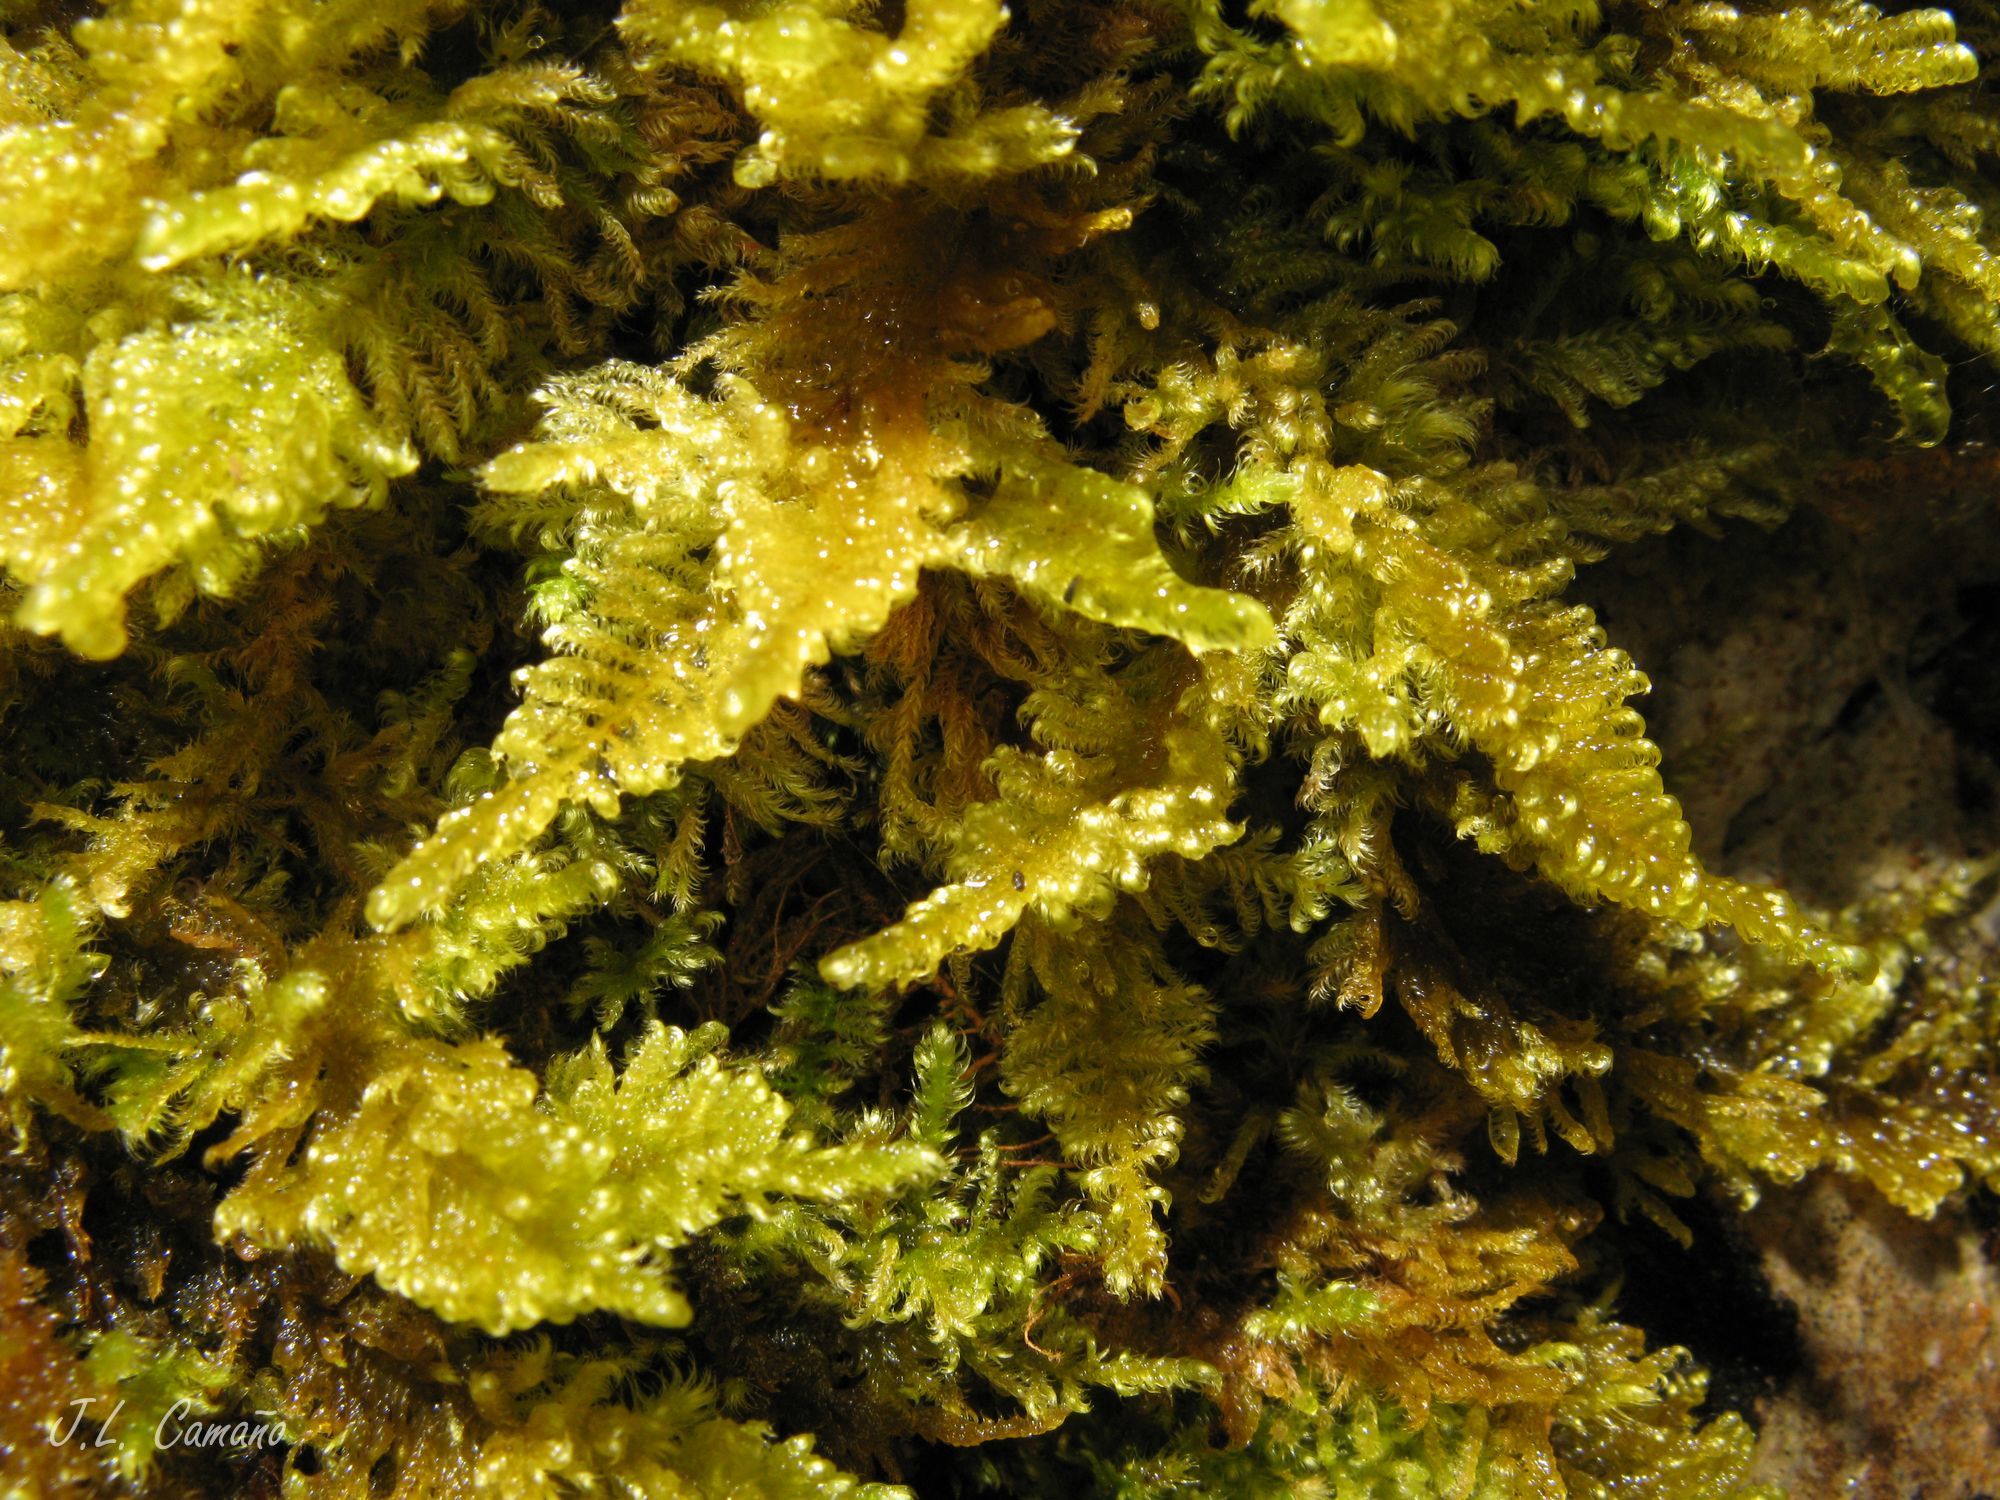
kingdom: Plantae
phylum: Bryophyta
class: Bryopsida
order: Hypnales
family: Myuriaceae
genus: Ctenidium
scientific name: Ctenidium molluscum
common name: Chalk comb-moss
